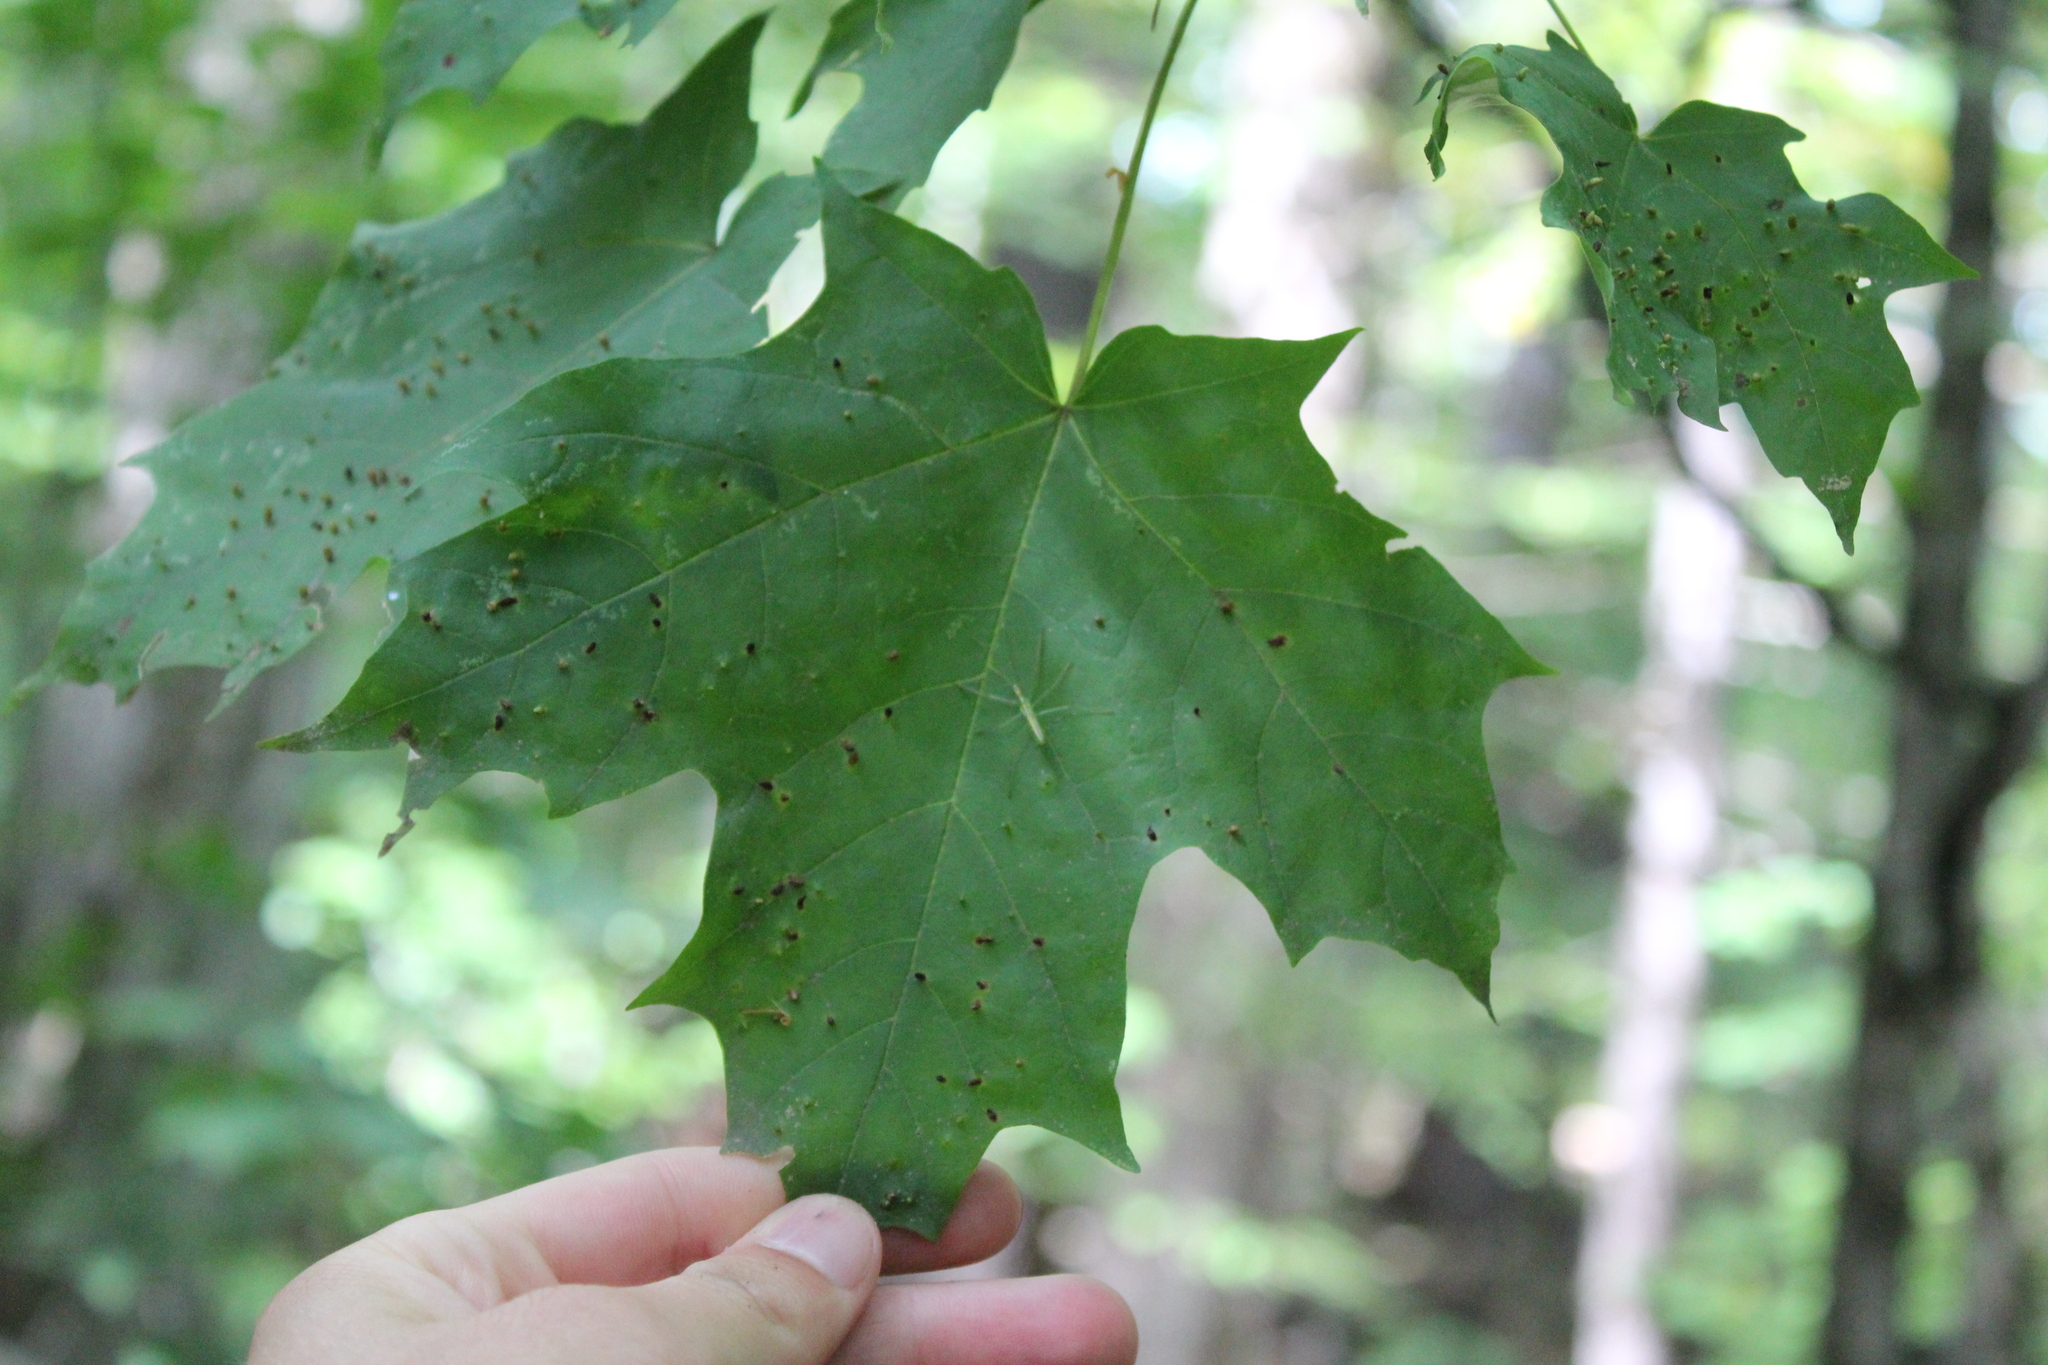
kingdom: Plantae
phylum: Tracheophyta
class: Magnoliopsida
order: Sapindales
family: Sapindaceae
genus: Acer
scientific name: Acer saccharum
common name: Sugar maple
